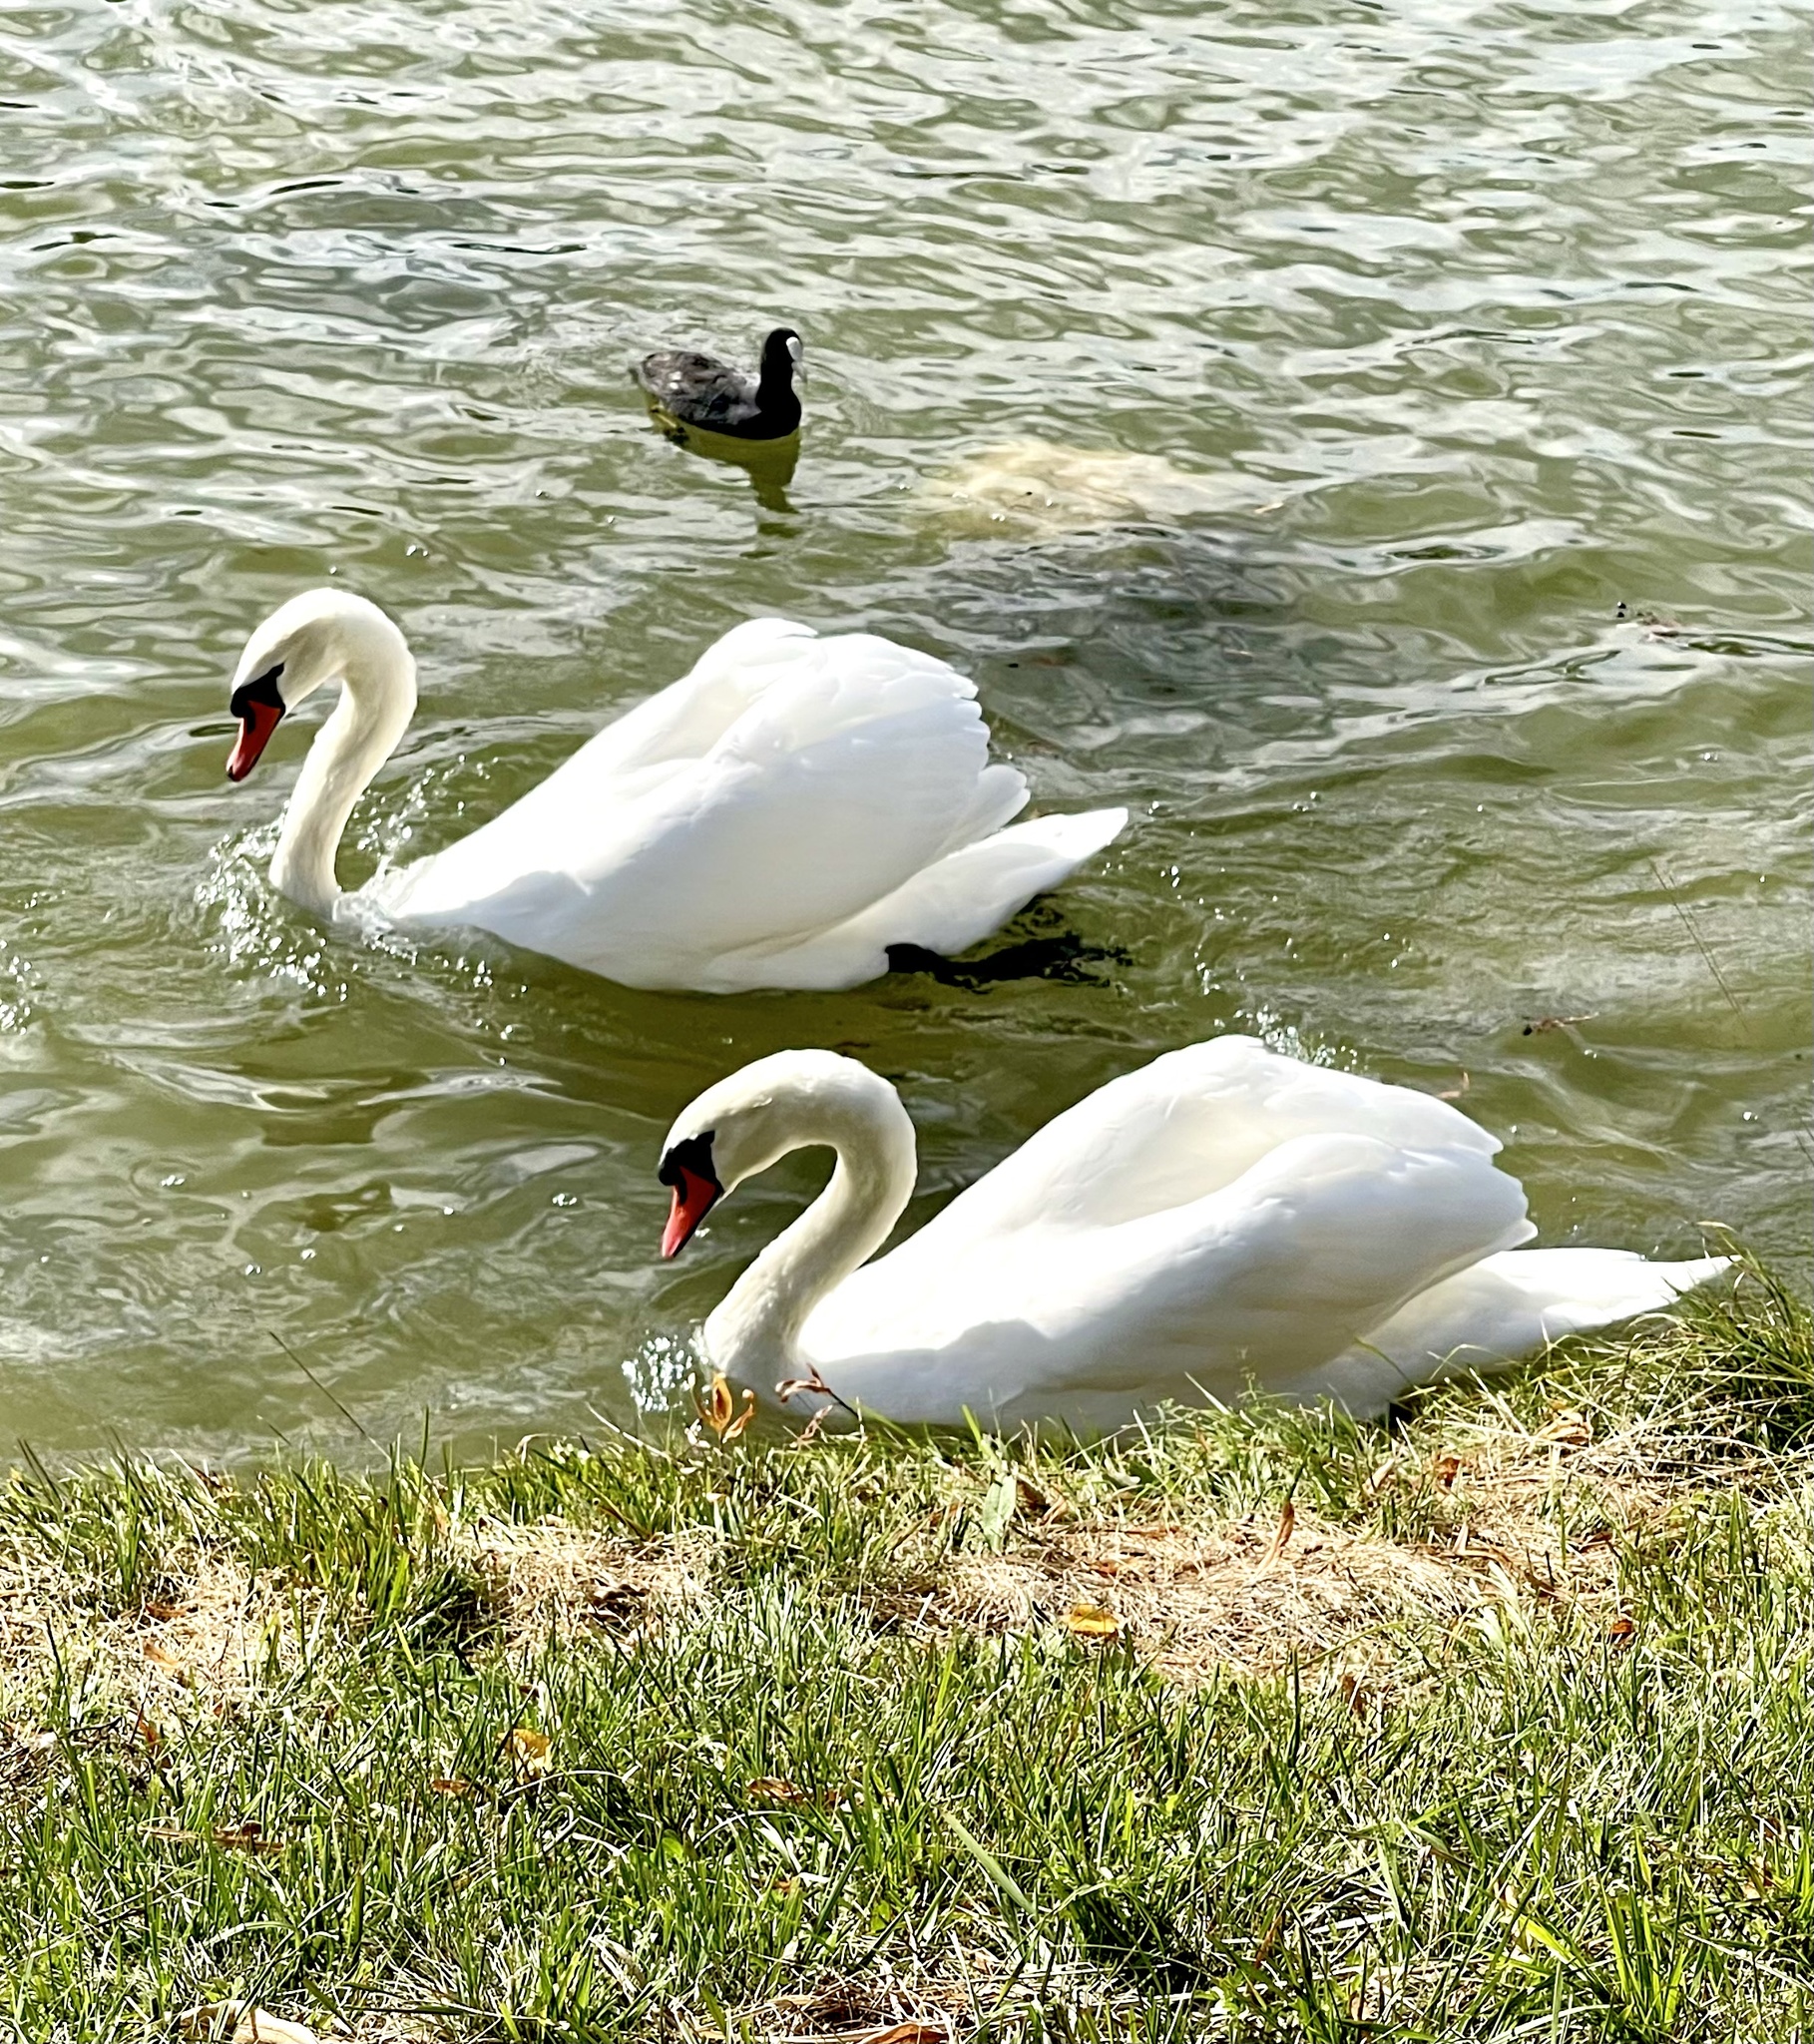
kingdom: Animalia
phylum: Chordata
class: Aves
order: Anseriformes
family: Anatidae
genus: Cygnus
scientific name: Cygnus olor
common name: Mute swan
